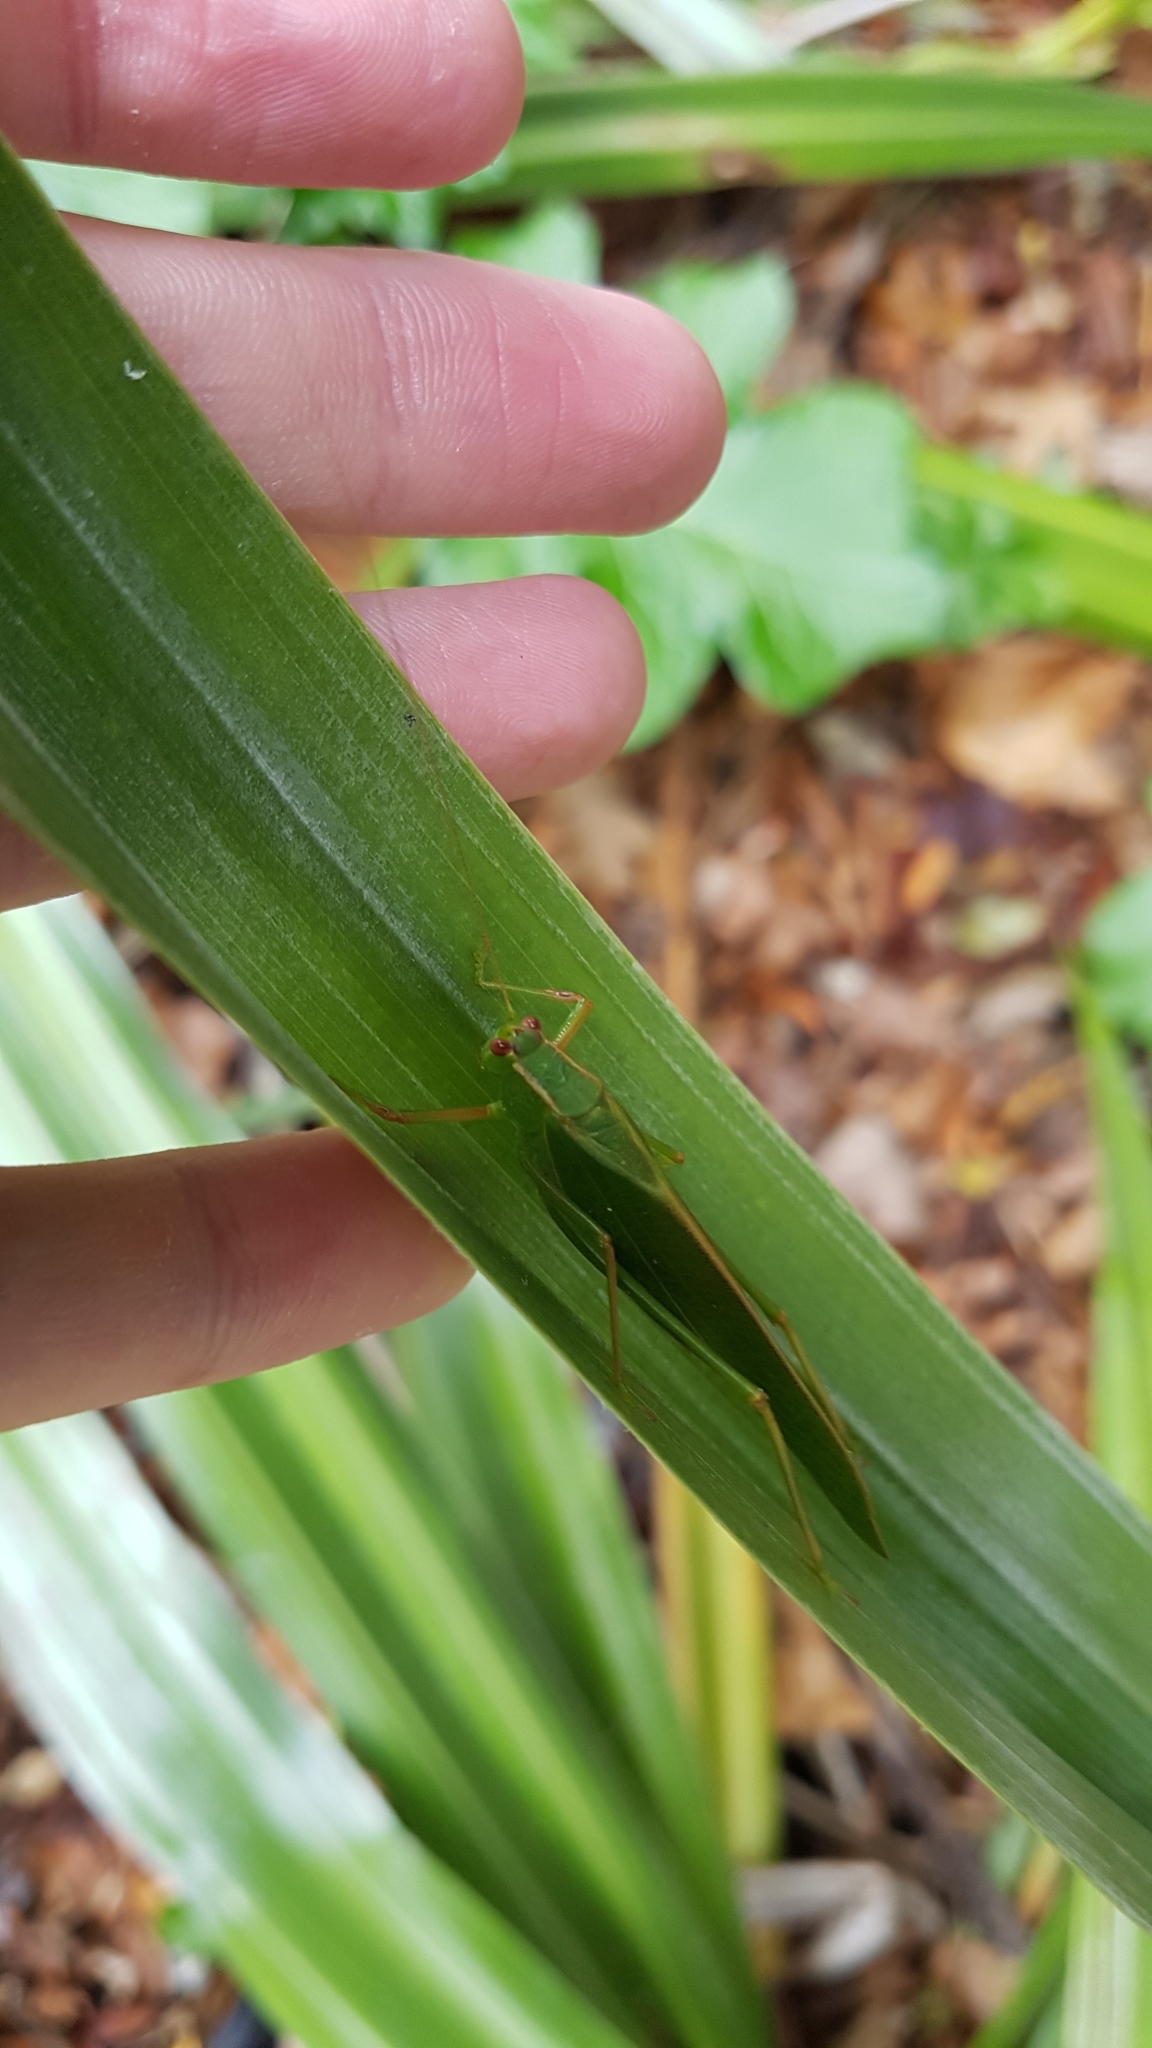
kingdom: Animalia
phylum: Arthropoda
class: Insecta
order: Orthoptera
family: Tettigoniidae
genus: Caedicia
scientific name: Caedicia simplex
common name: Common garden katydid
